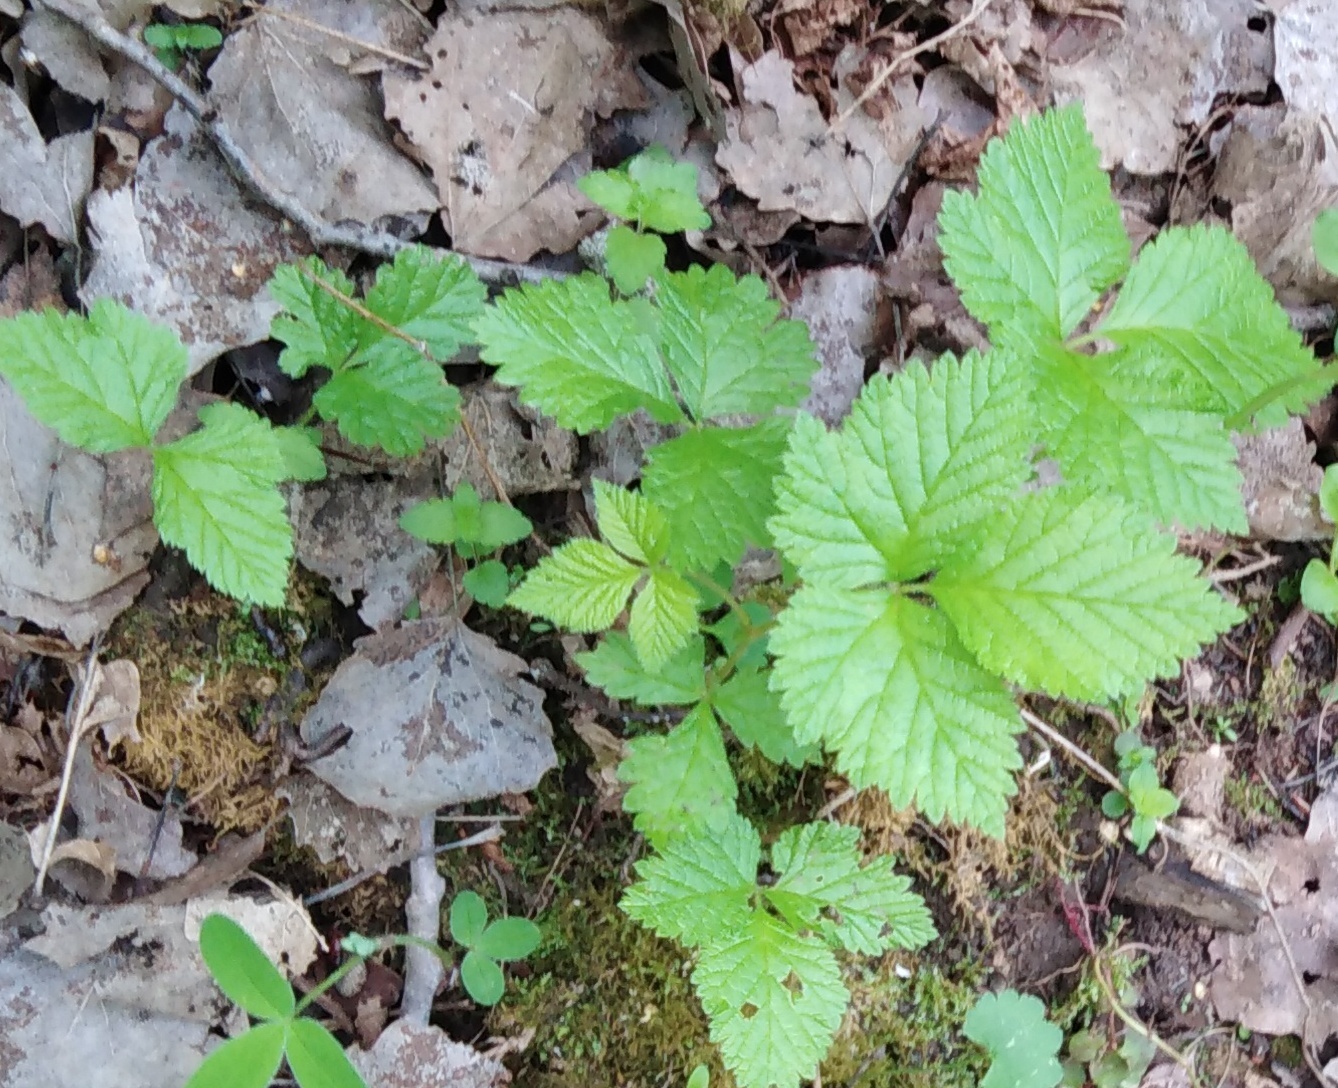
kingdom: Plantae
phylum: Tracheophyta
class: Magnoliopsida
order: Rosales
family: Rosaceae
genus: Rubus
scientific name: Rubus saxatilis
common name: Stone bramble
